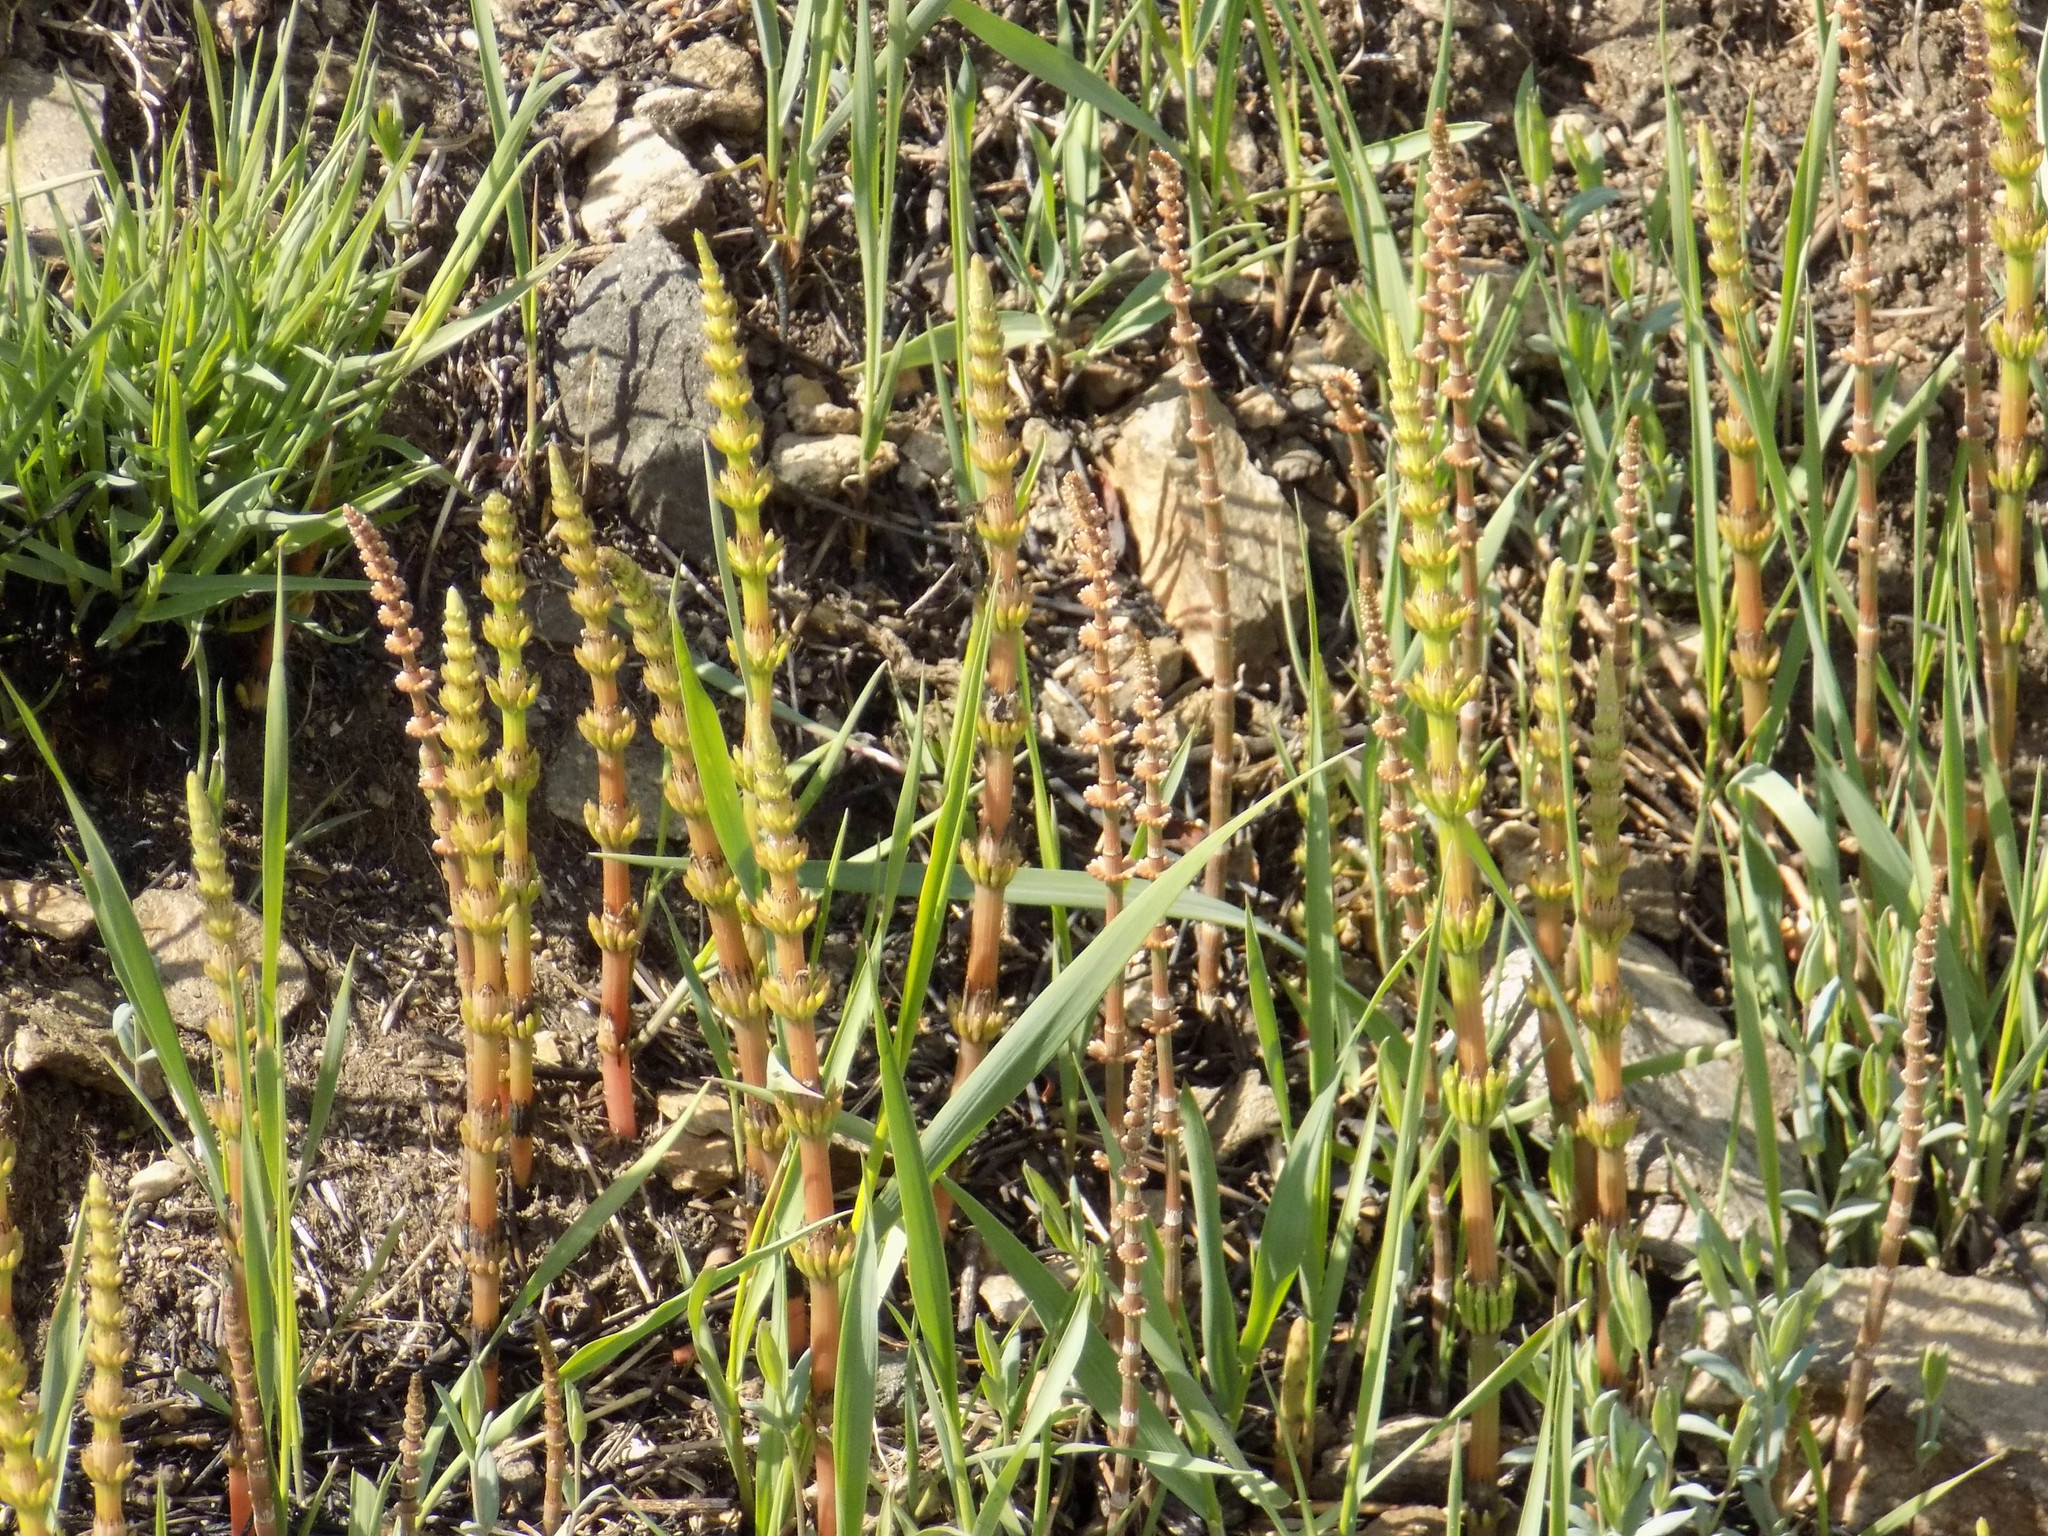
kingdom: Plantae
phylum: Tracheophyta
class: Polypodiopsida
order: Equisetales
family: Equisetaceae
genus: Equisetum
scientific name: Equisetum pratense
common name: Meadow horsetail
